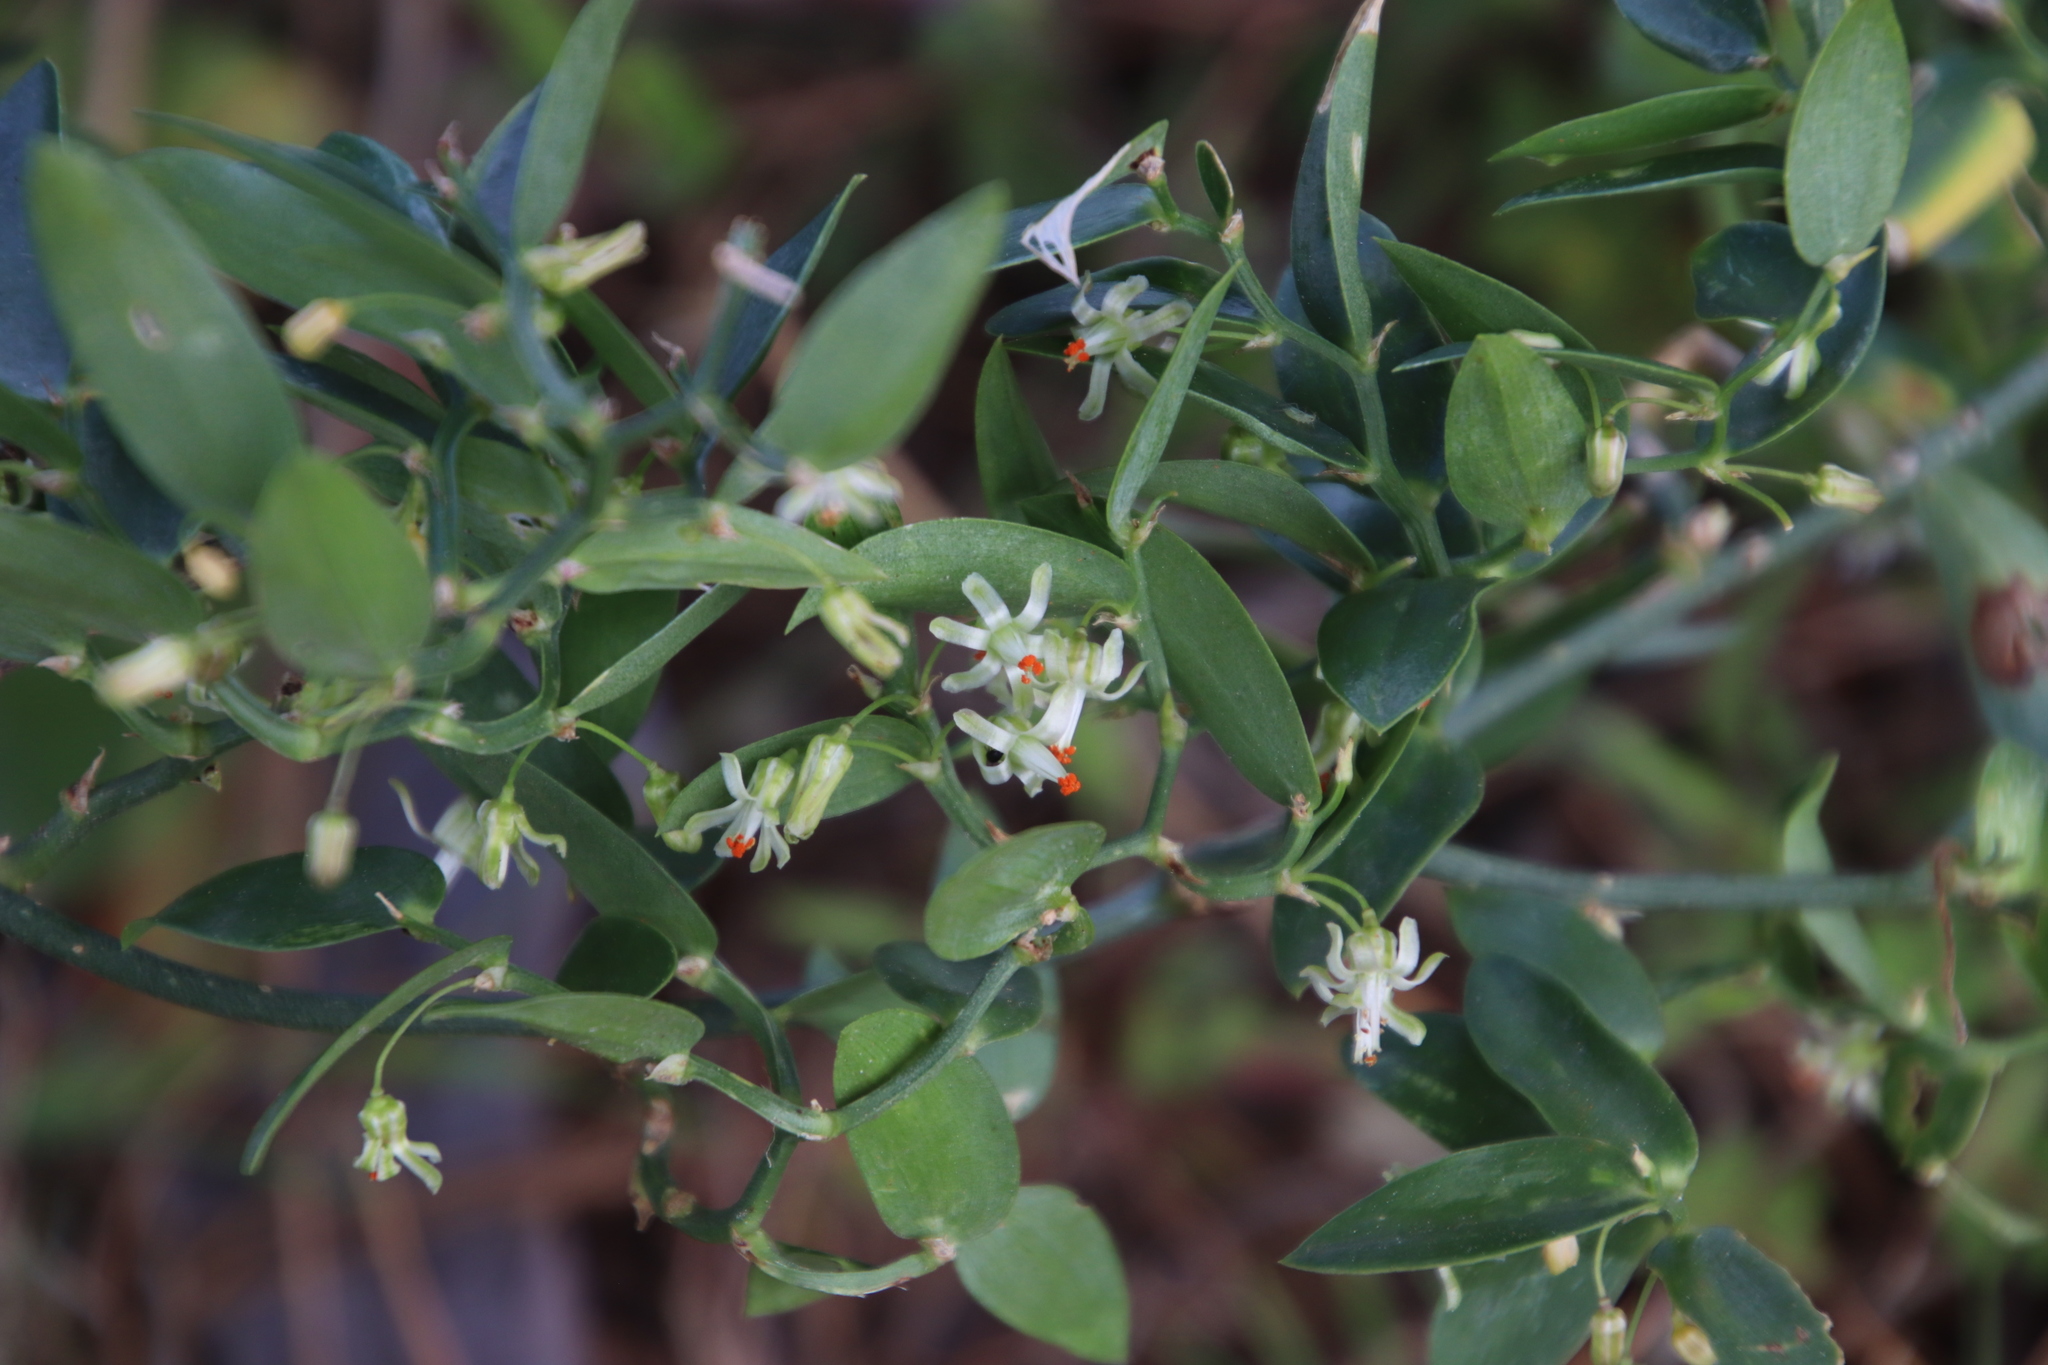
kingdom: Plantae
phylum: Tracheophyta
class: Liliopsida
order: Asparagales
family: Asparagaceae
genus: Asparagus
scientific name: Asparagus ovatus
